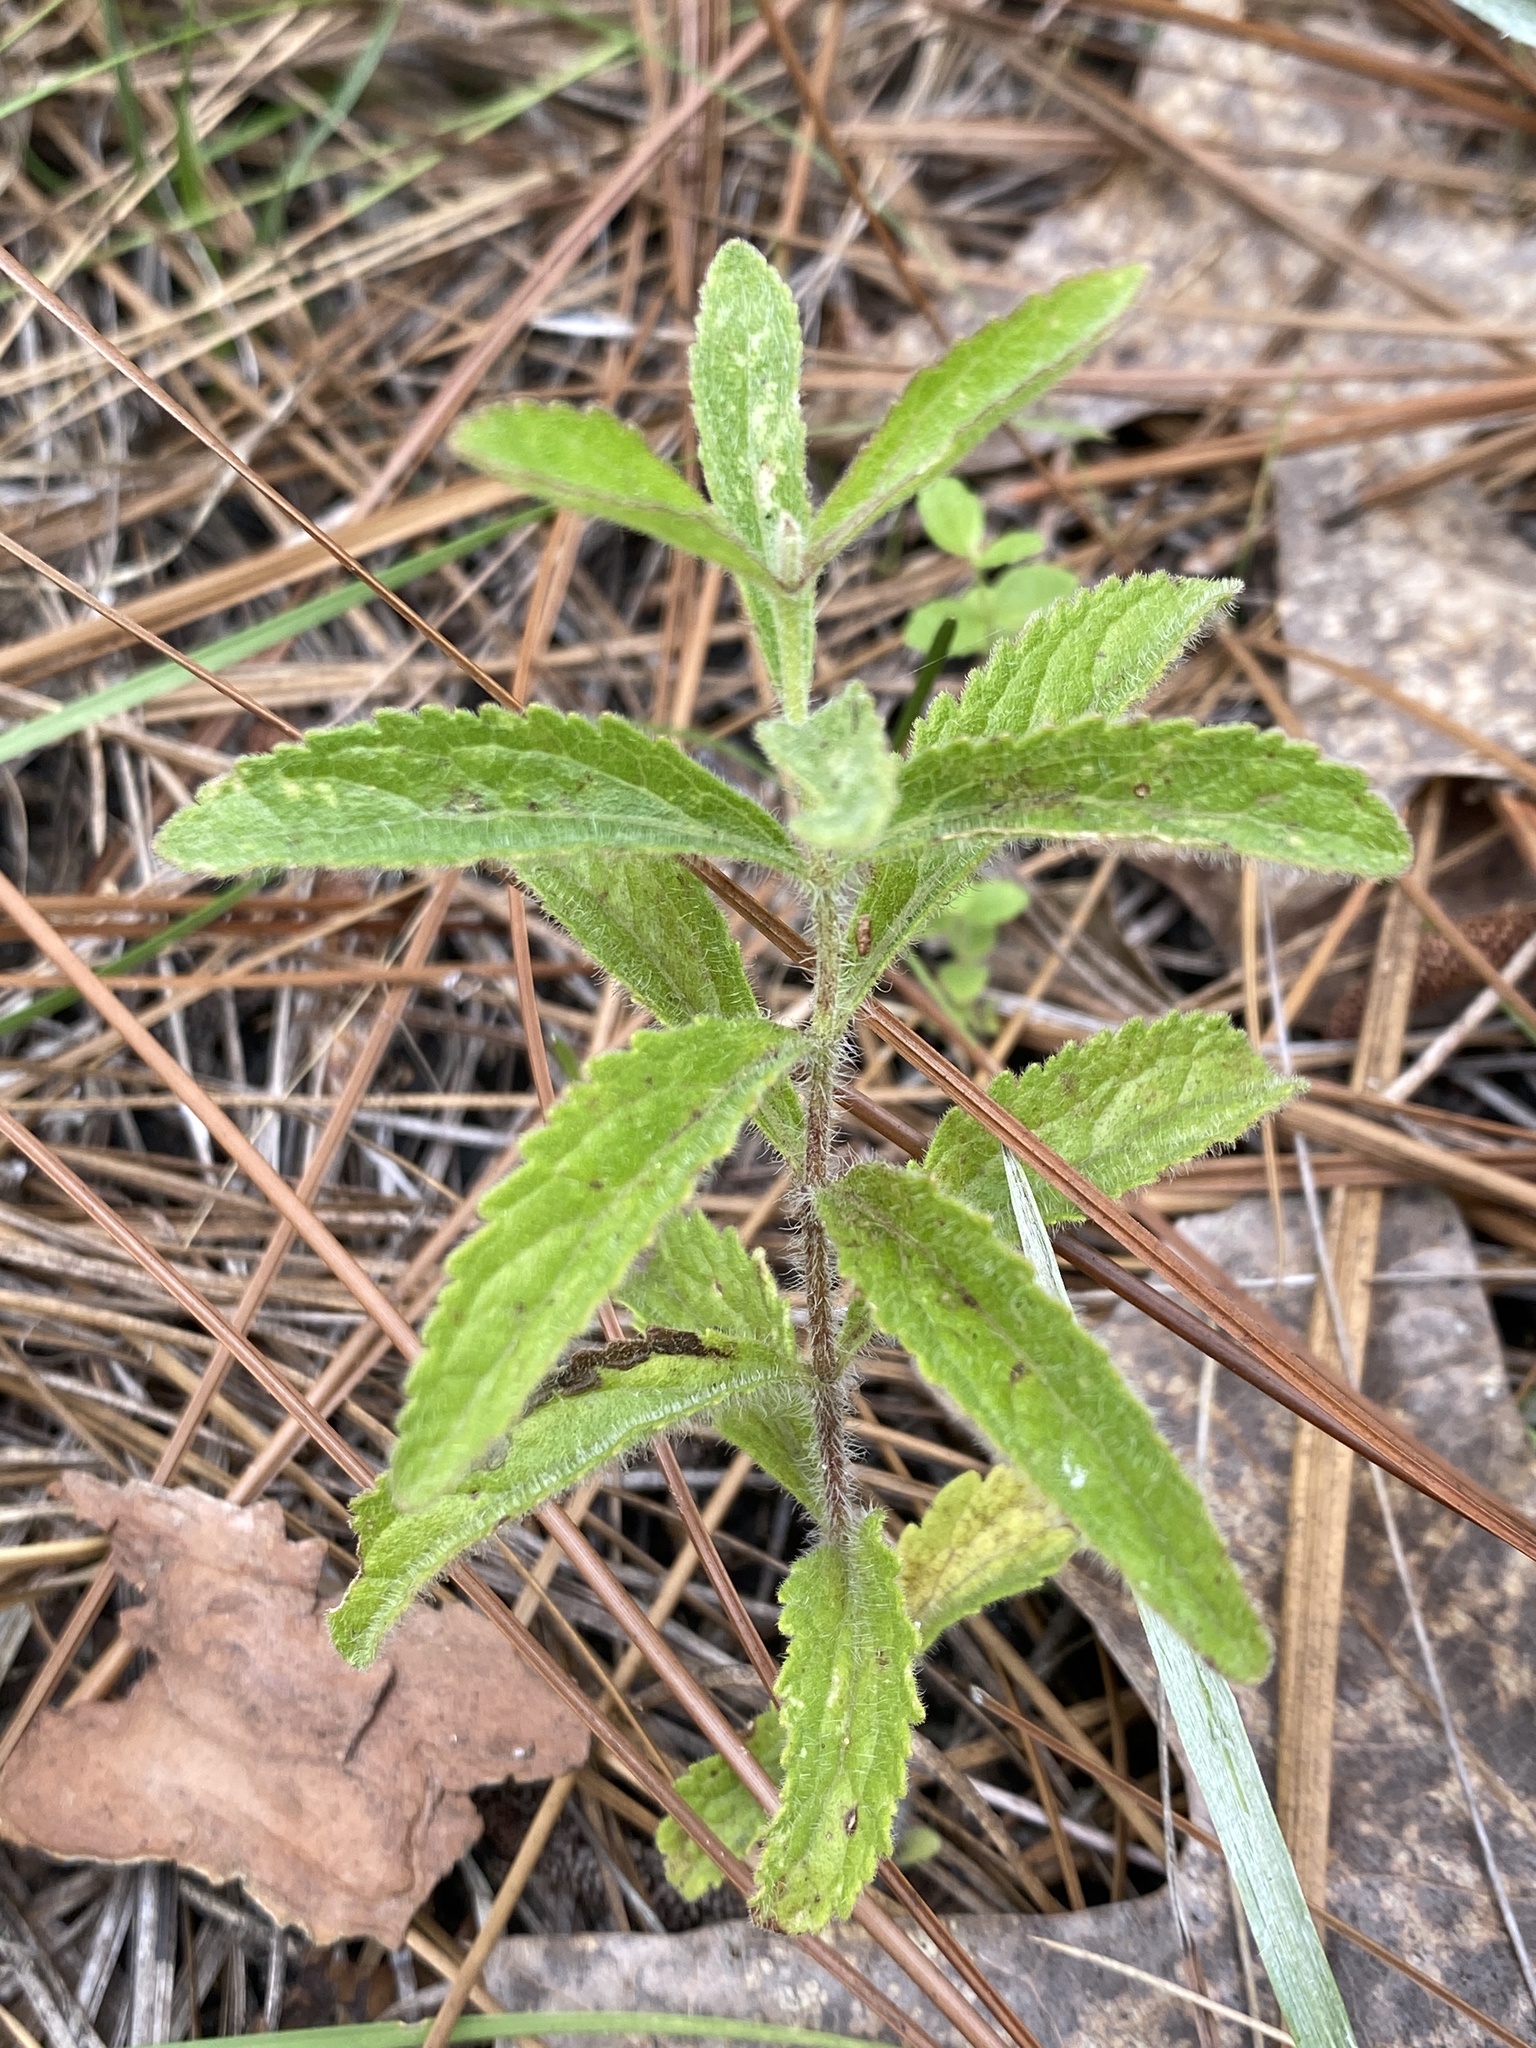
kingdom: Plantae
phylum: Tracheophyta
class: Magnoliopsida
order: Lamiales
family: Lamiaceae
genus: Salvia
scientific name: Salvia azurea
